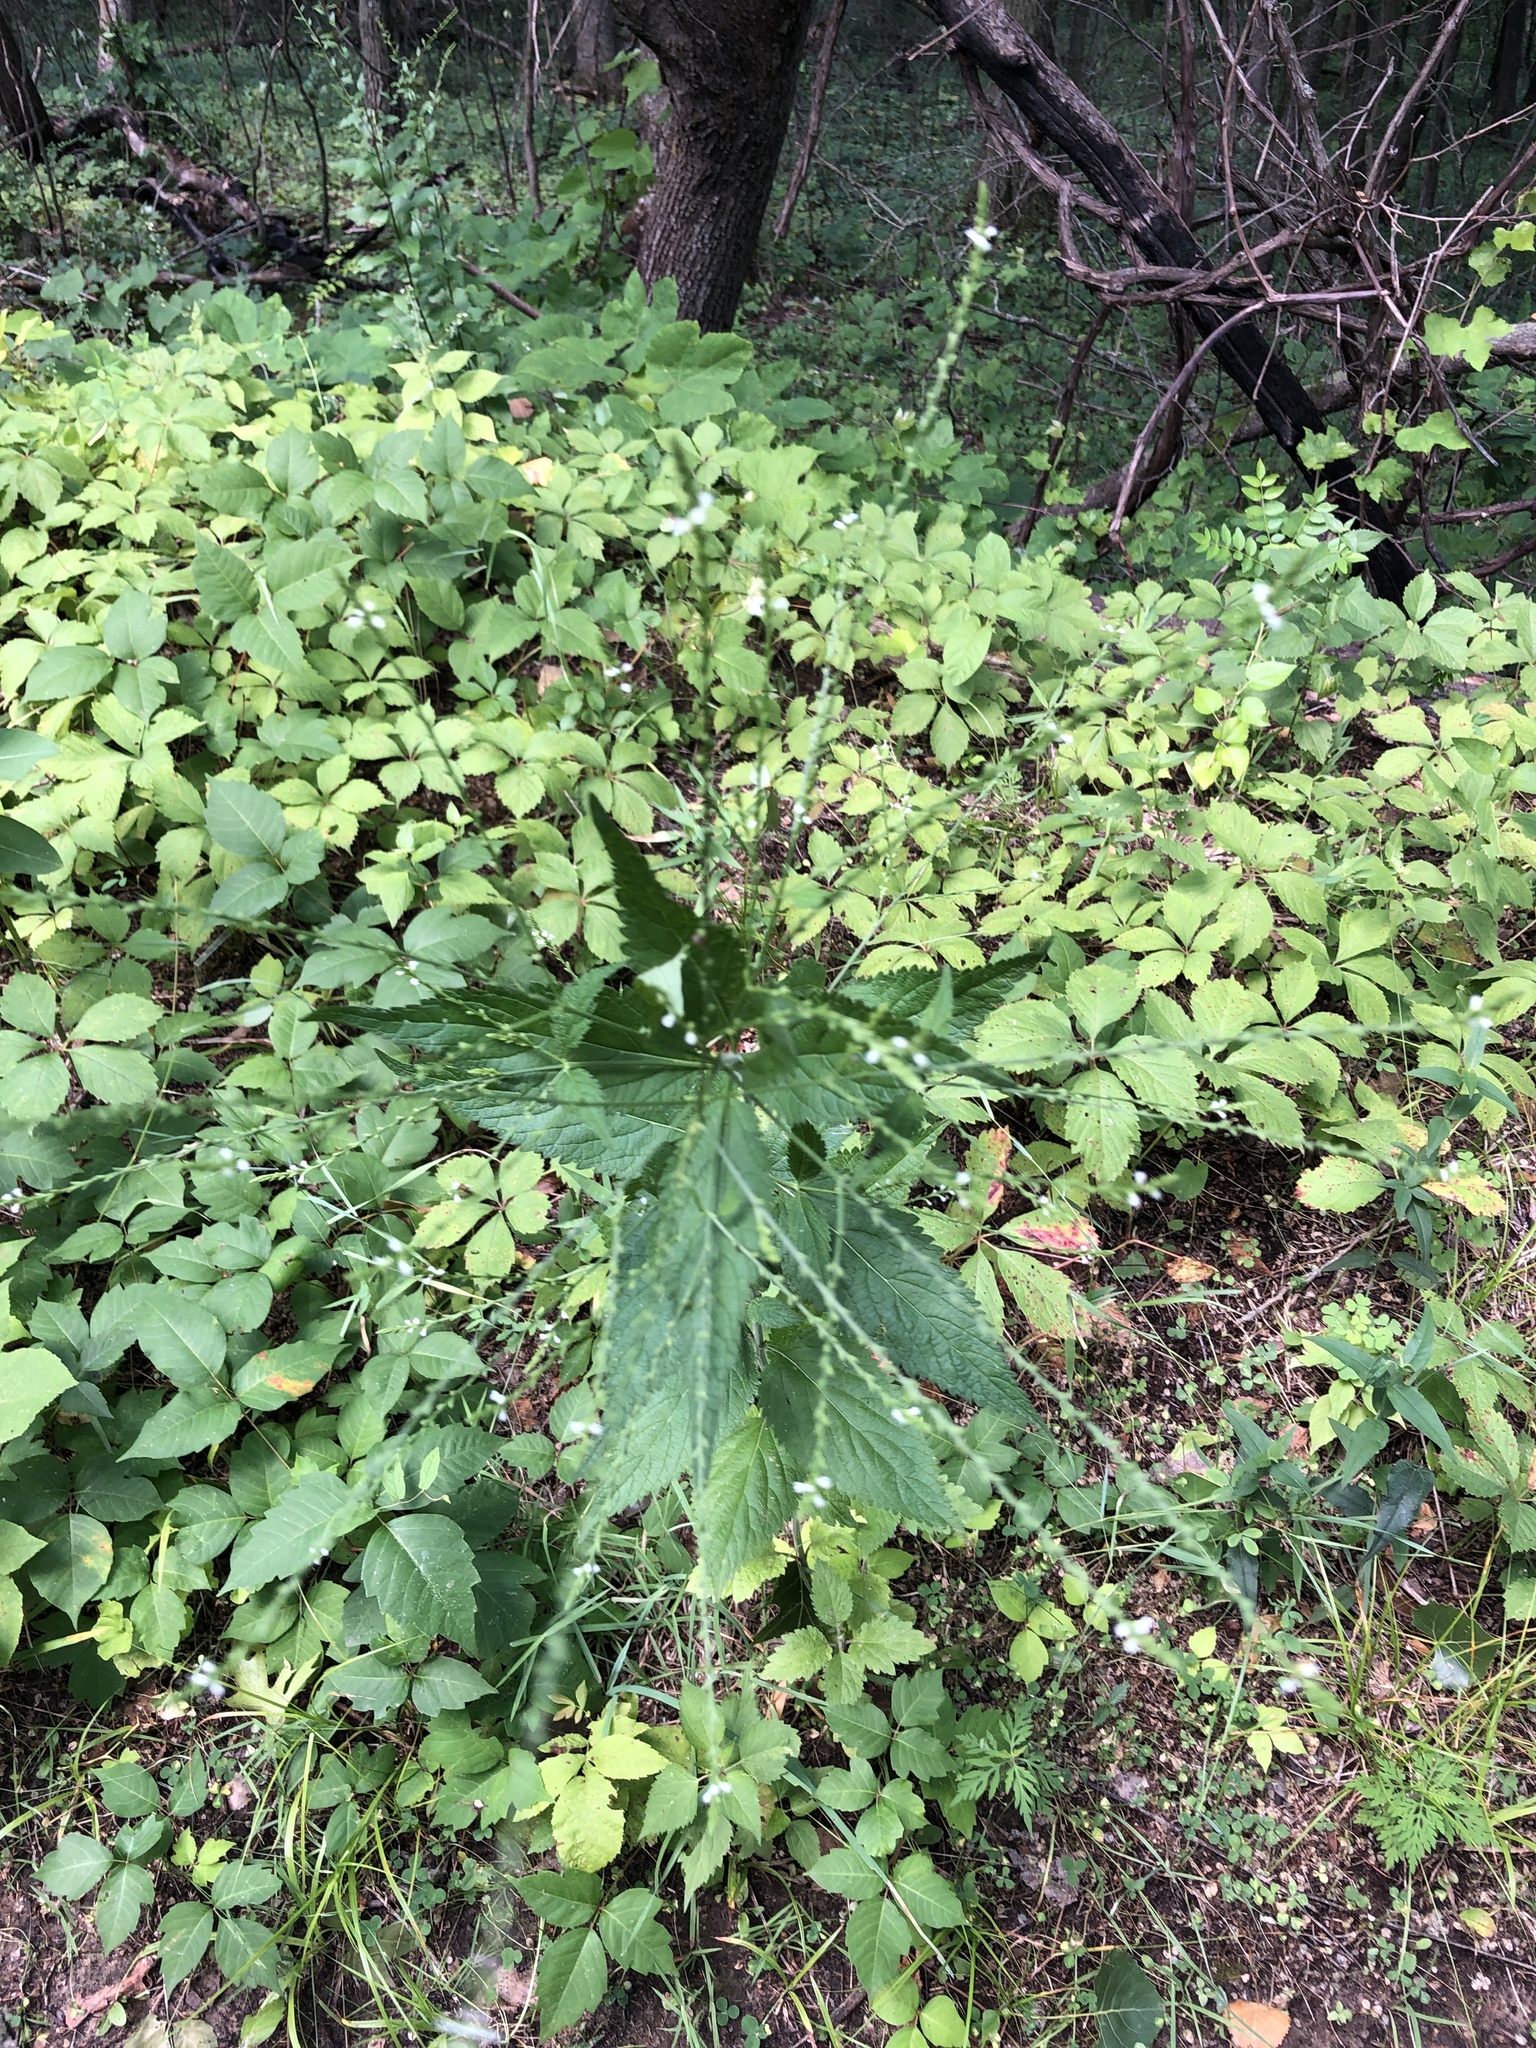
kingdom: Plantae
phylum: Tracheophyta
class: Magnoliopsida
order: Lamiales
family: Verbenaceae
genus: Verbena
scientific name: Verbena urticifolia
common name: Nettle-leaved vervain
